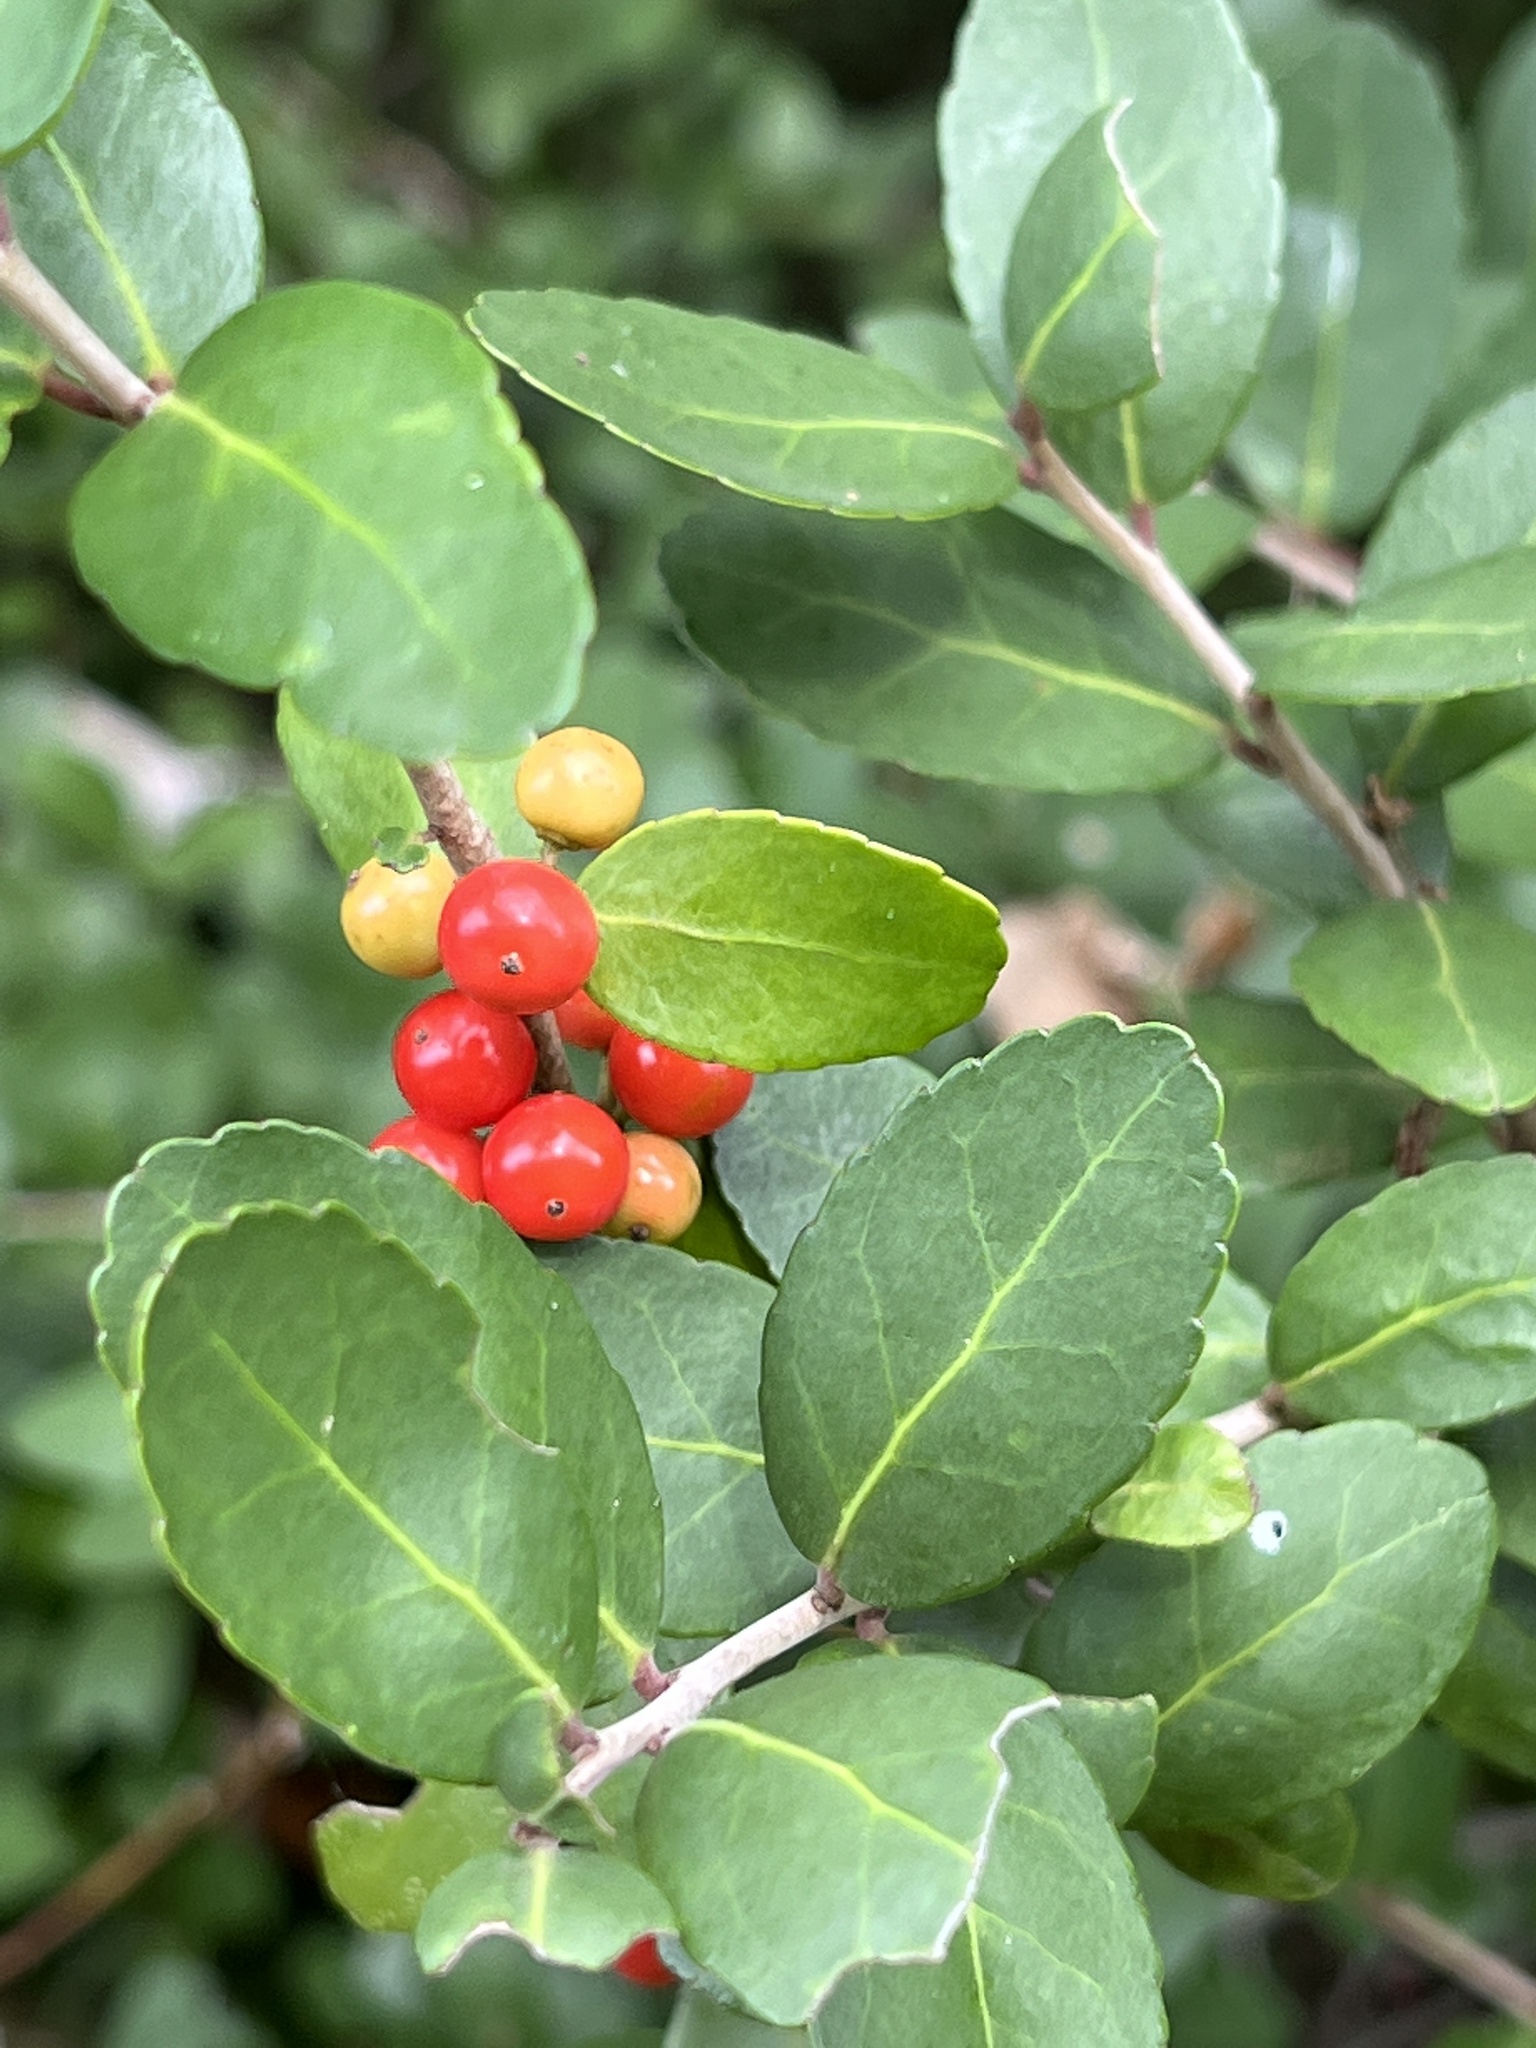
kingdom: Plantae
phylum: Tracheophyta
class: Magnoliopsida
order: Aquifoliales
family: Aquifoliaceae
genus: Ilex
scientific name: Ilex vomitoria
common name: Yaupon holly
